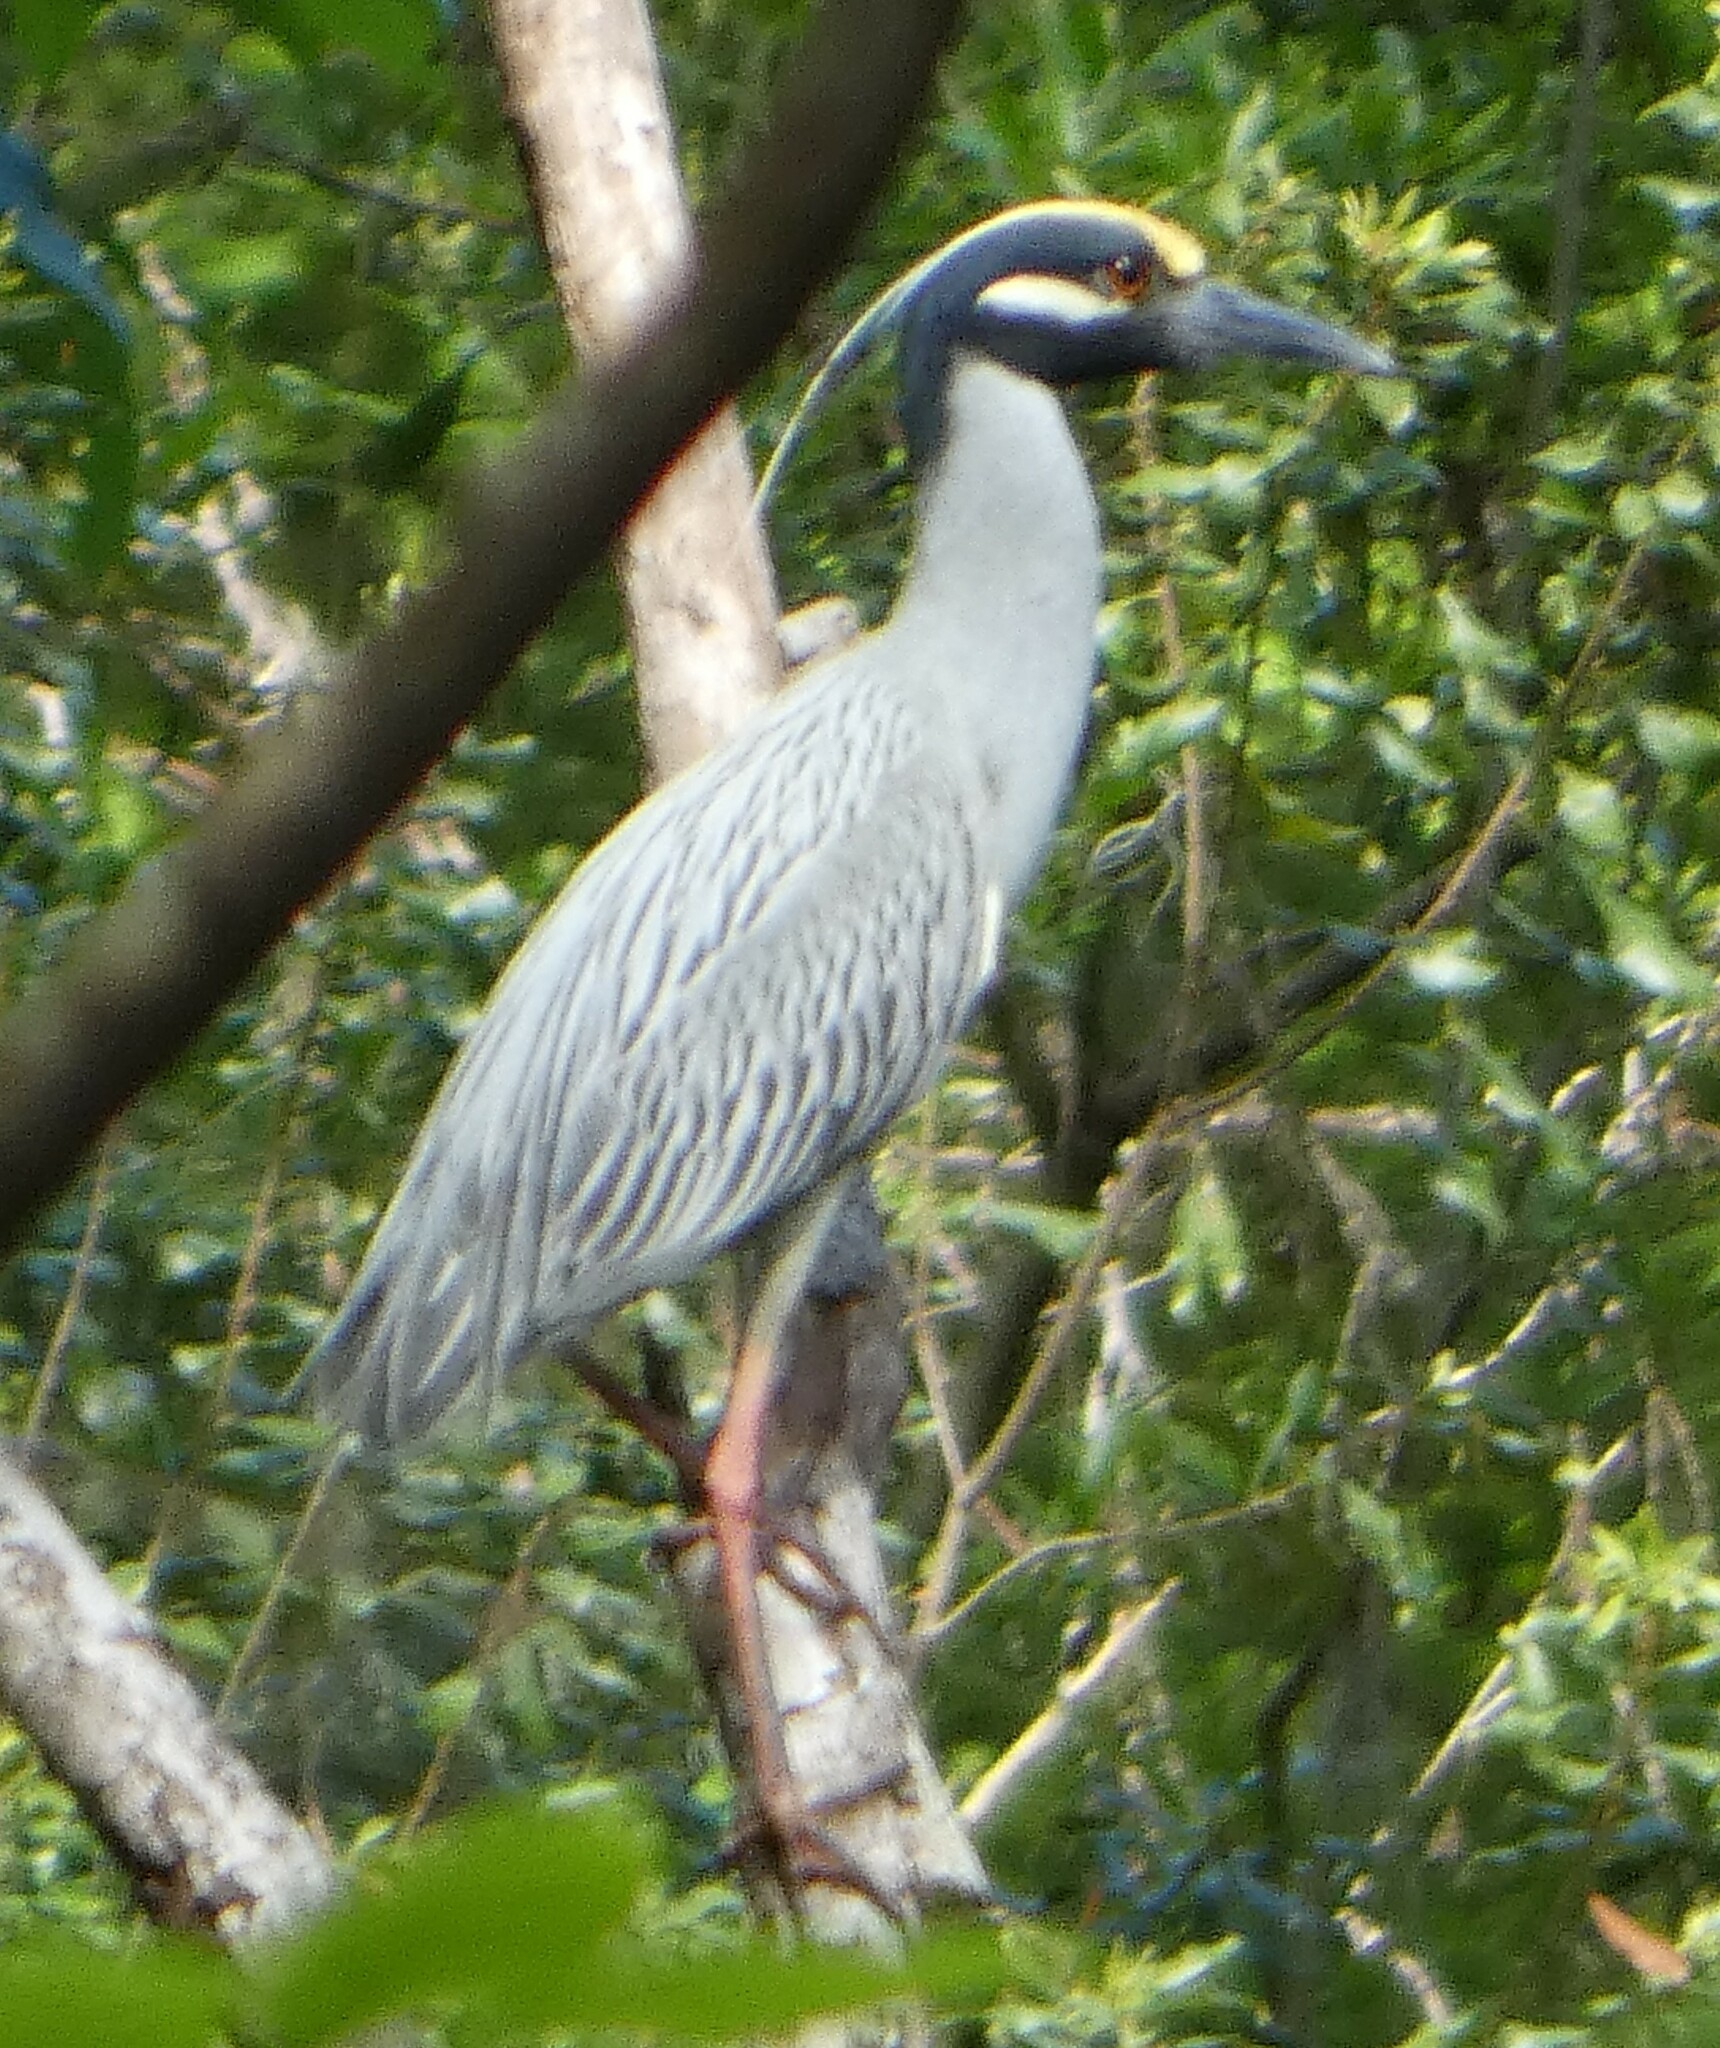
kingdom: Animalia
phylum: Chordata
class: Aves
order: Pelecaniformes
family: Ardeidae
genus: Nyctanassa
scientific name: Nyctanassa violacea
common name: Yellow-crowned night heron
